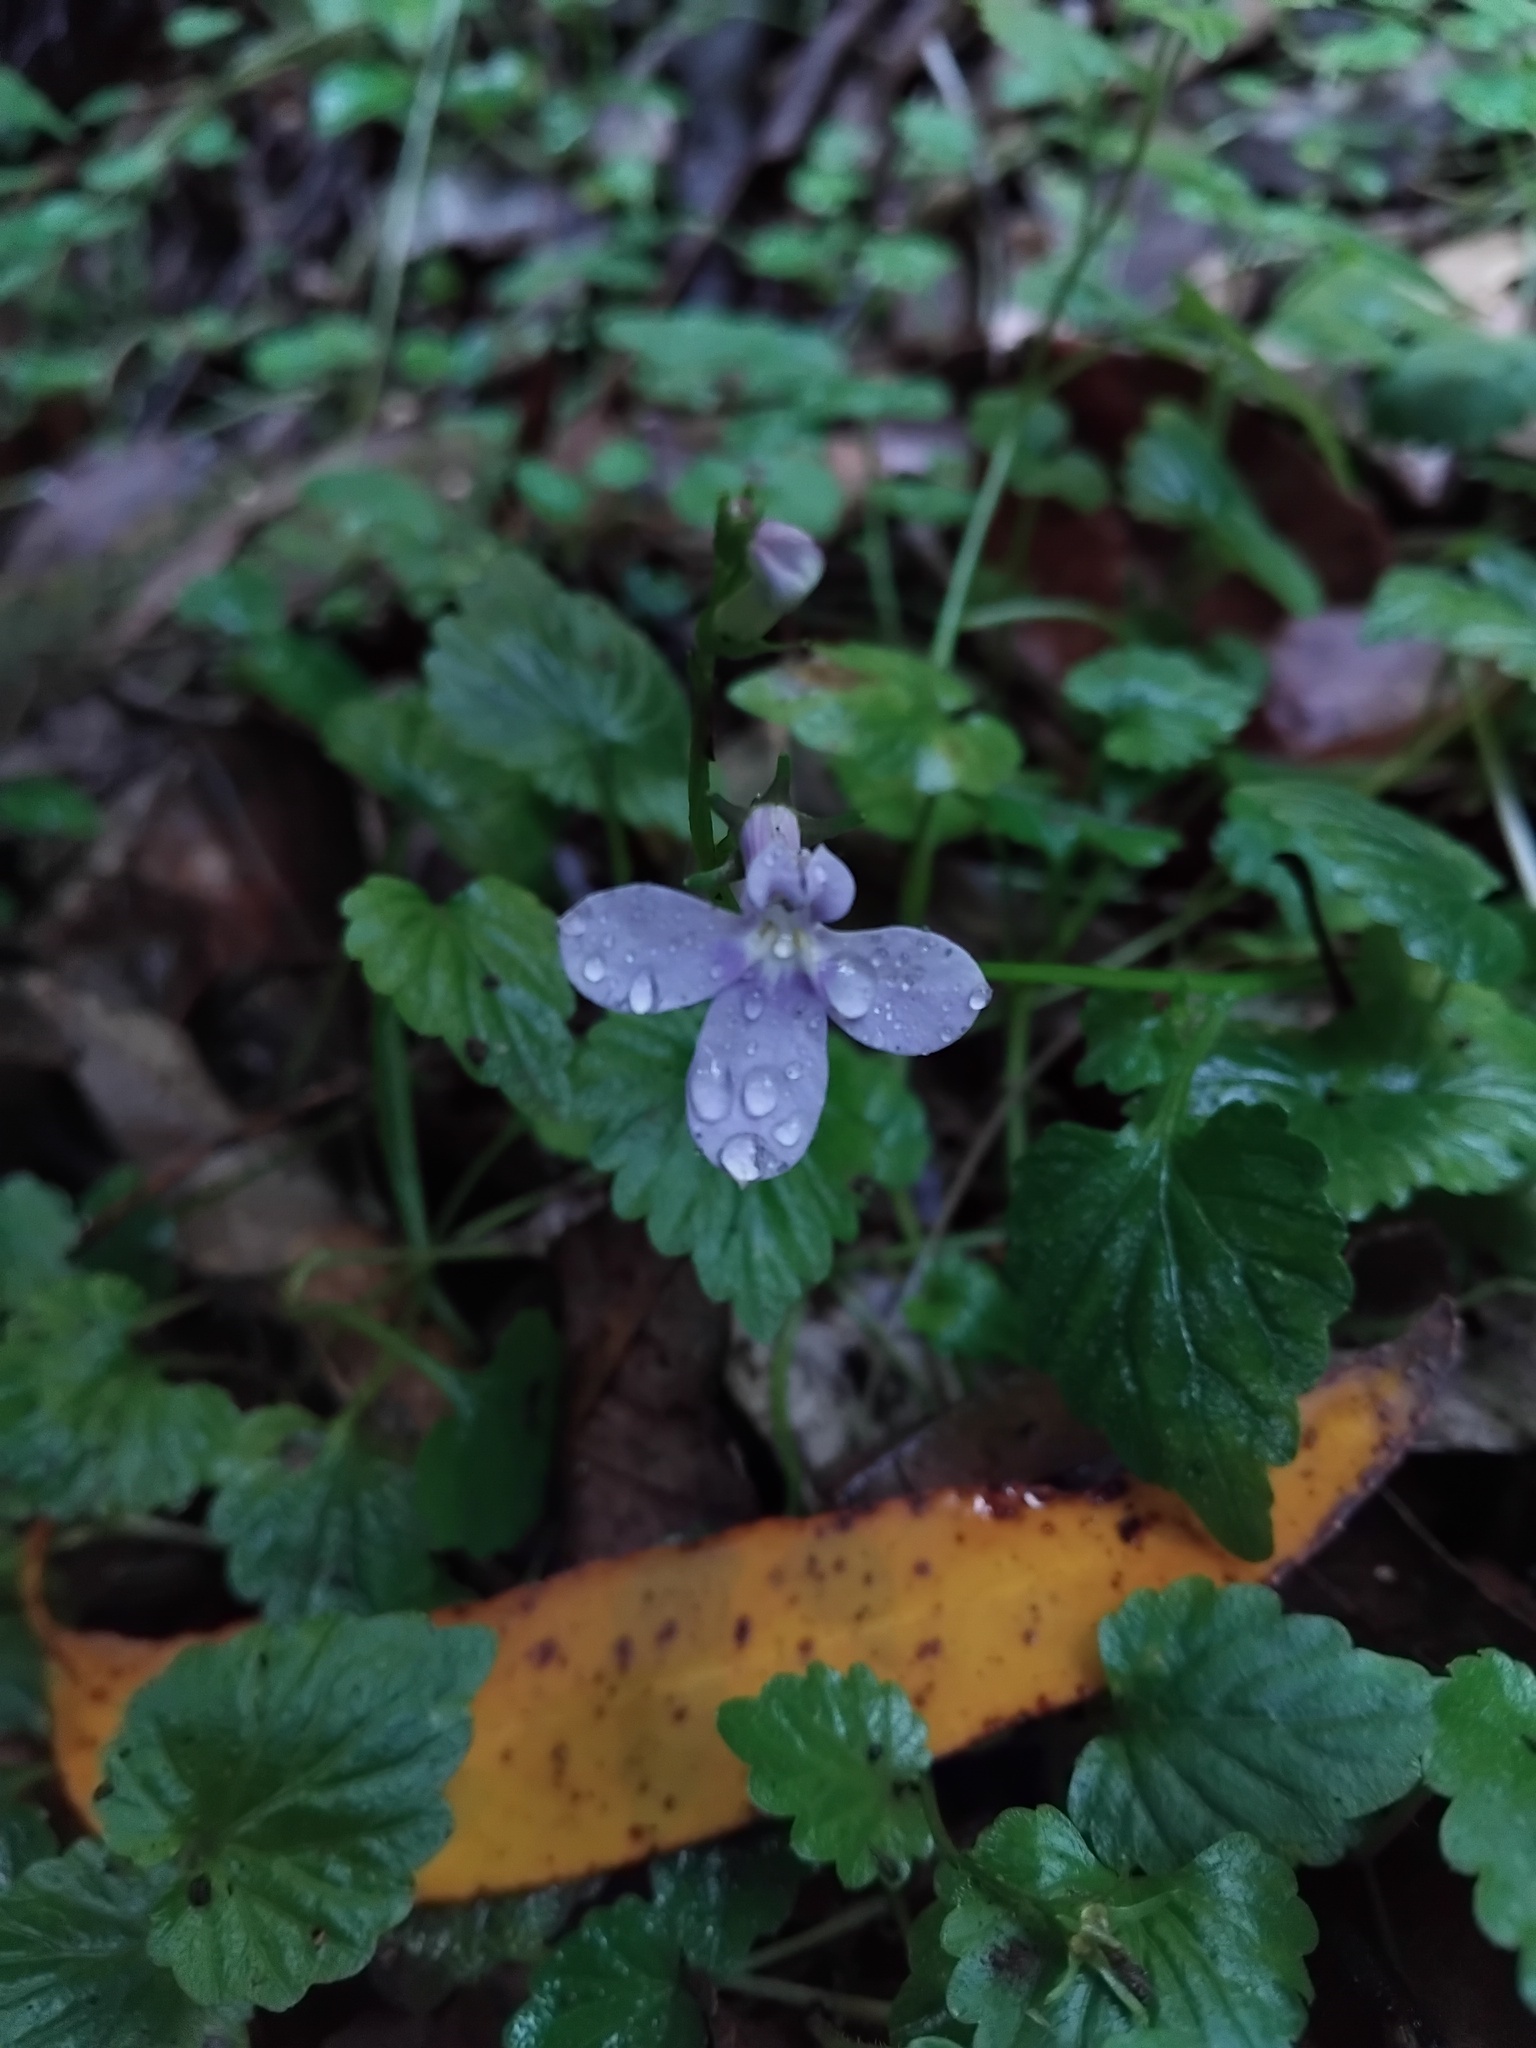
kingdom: Plantae
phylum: Tracheophyta
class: Magnoliopsida
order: Asterales
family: Campanulaceae
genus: Lobelia
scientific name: Lobelia trigonocaulis
